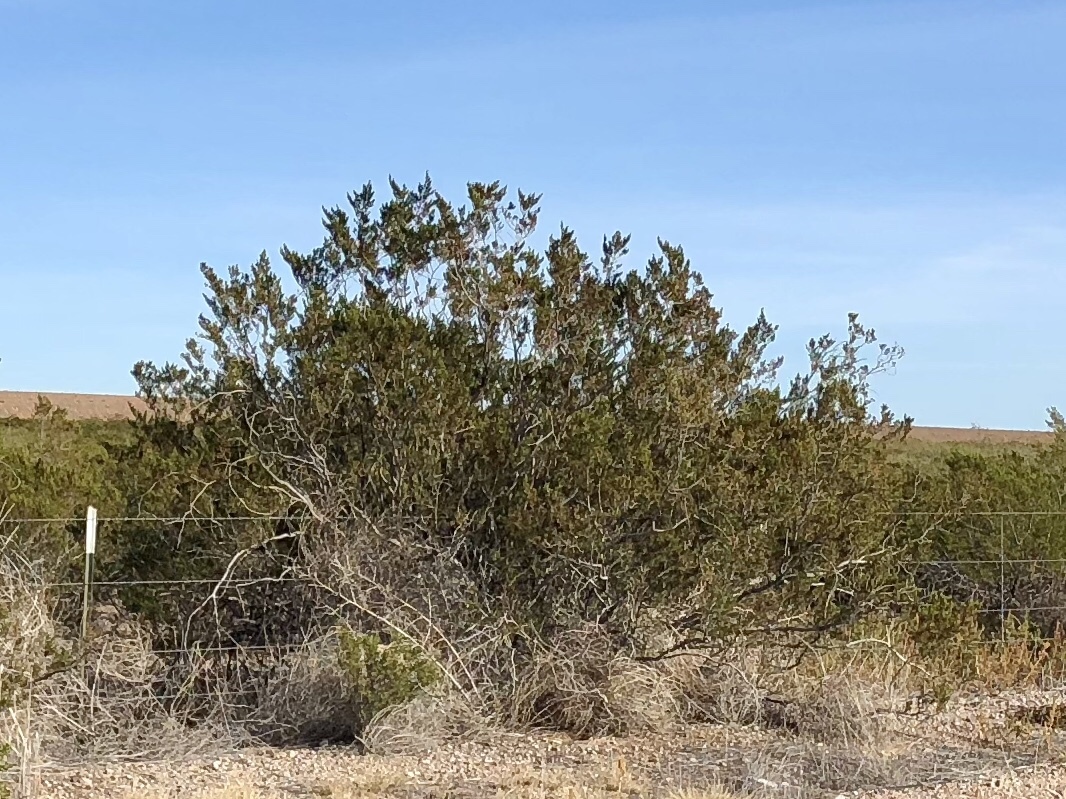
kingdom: Plantae
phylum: Tracheophyta
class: Magnoliopsida
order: Zygophyllales
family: Zygophyllaceae
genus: Larrea
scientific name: Larrea tridentata
